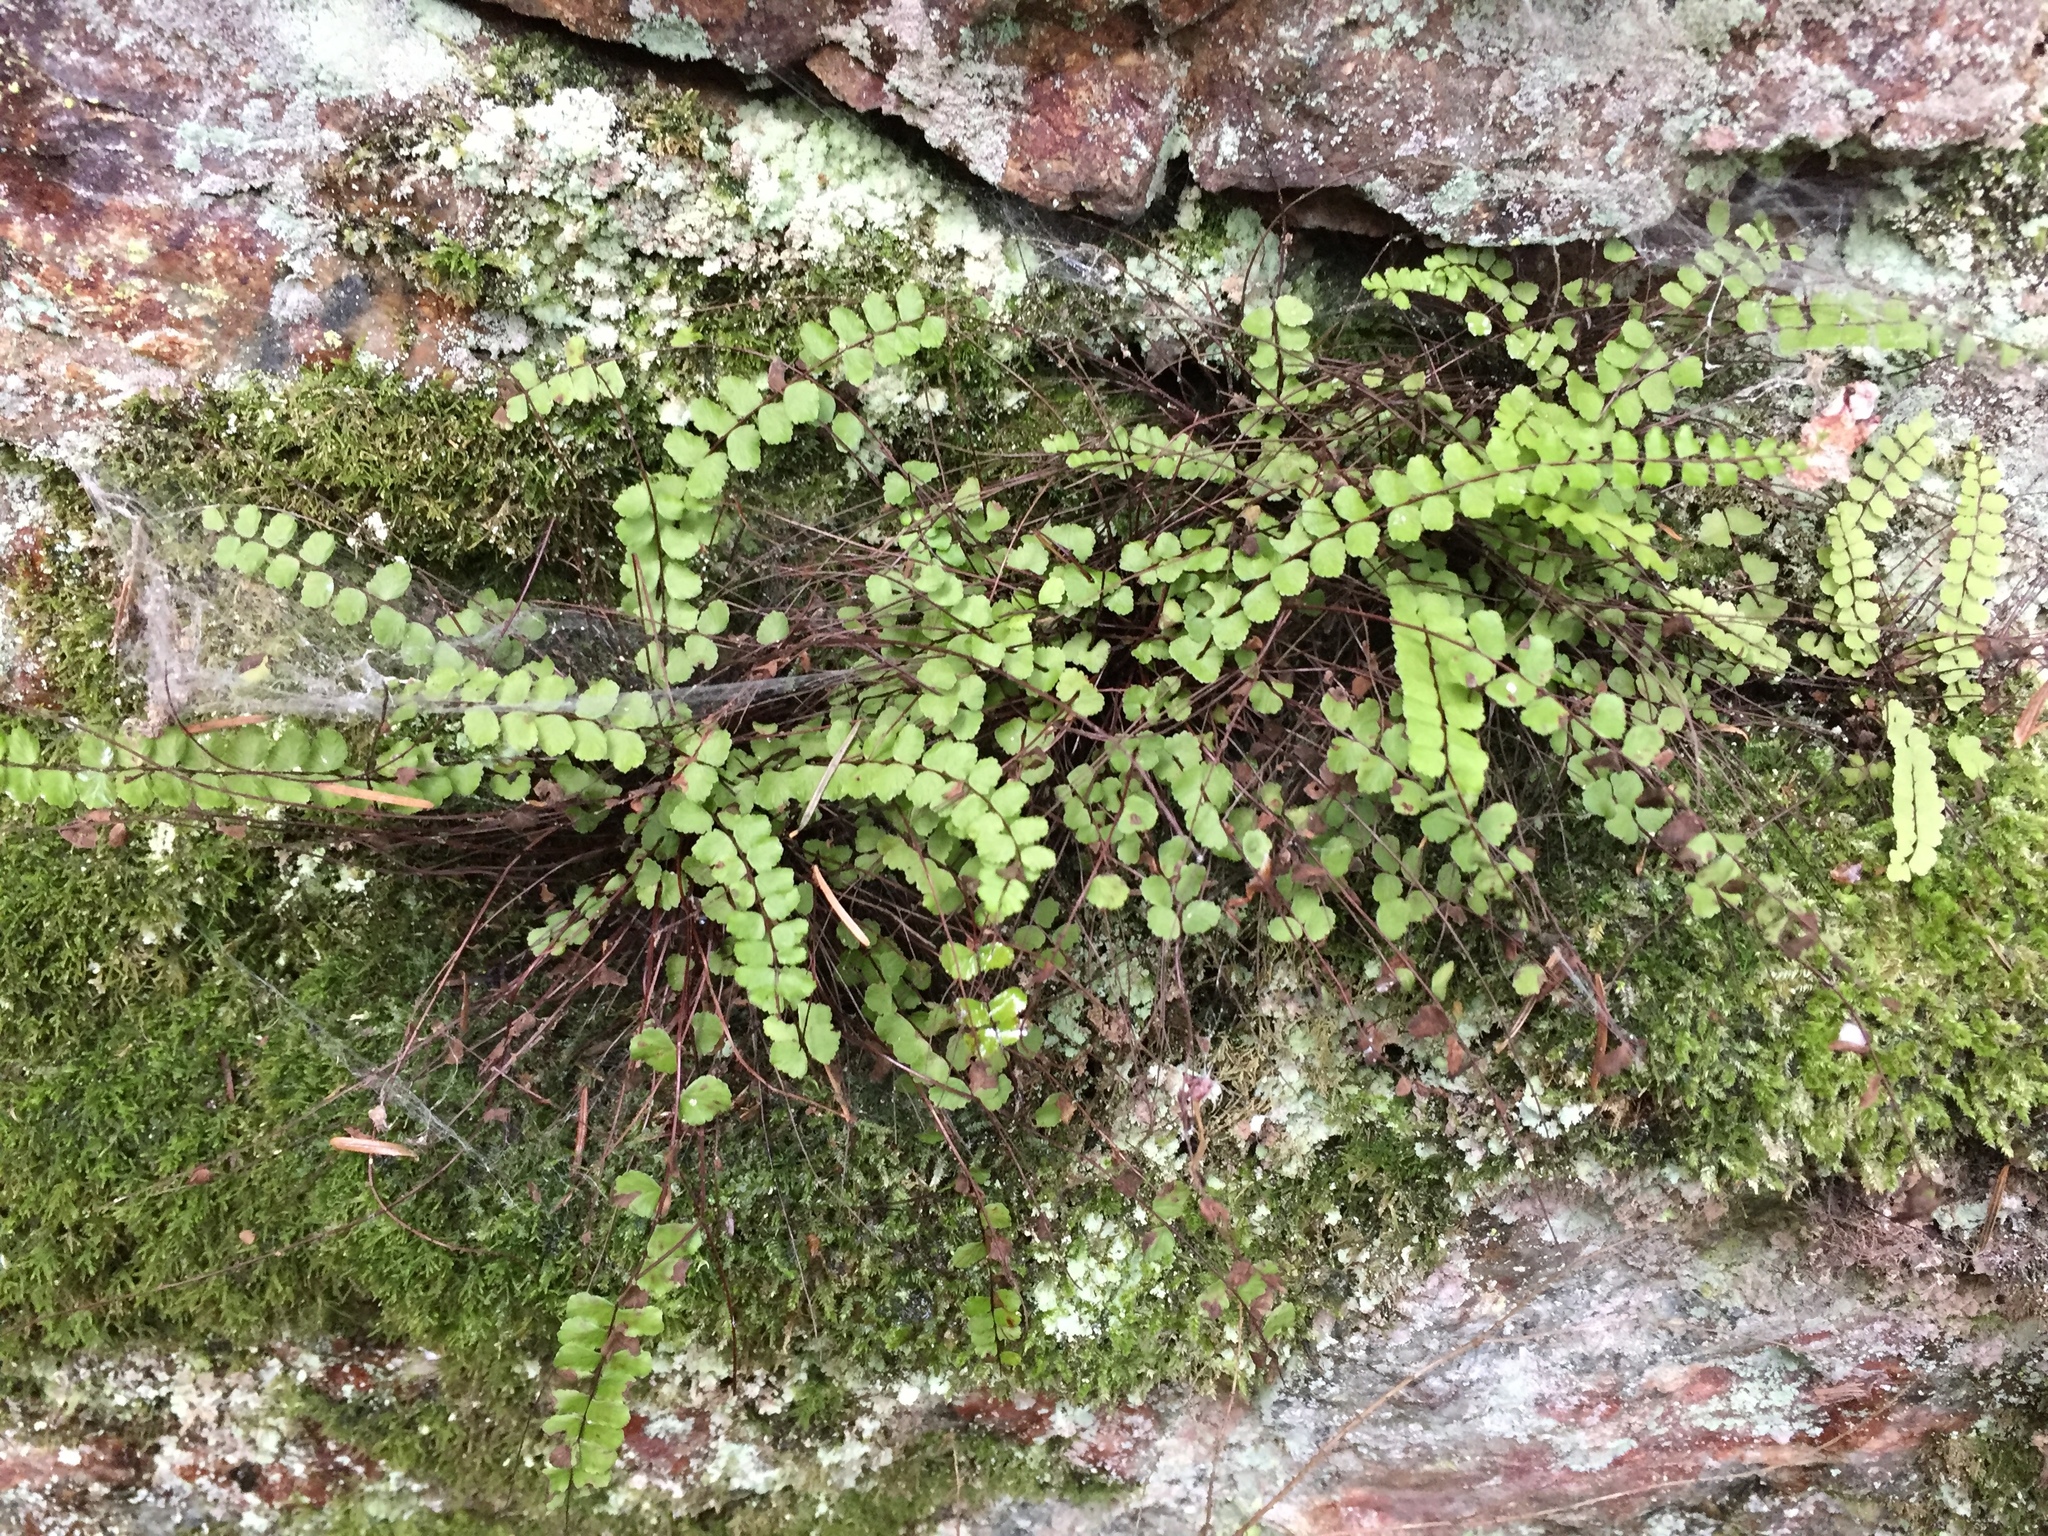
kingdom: Plantae
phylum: Tracheophyta
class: Polypodiopsida
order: Polypodiales
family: Aspleniaceae
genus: Asplenium
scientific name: Asplenium trichomanes
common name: Maidenhair spleenwort
